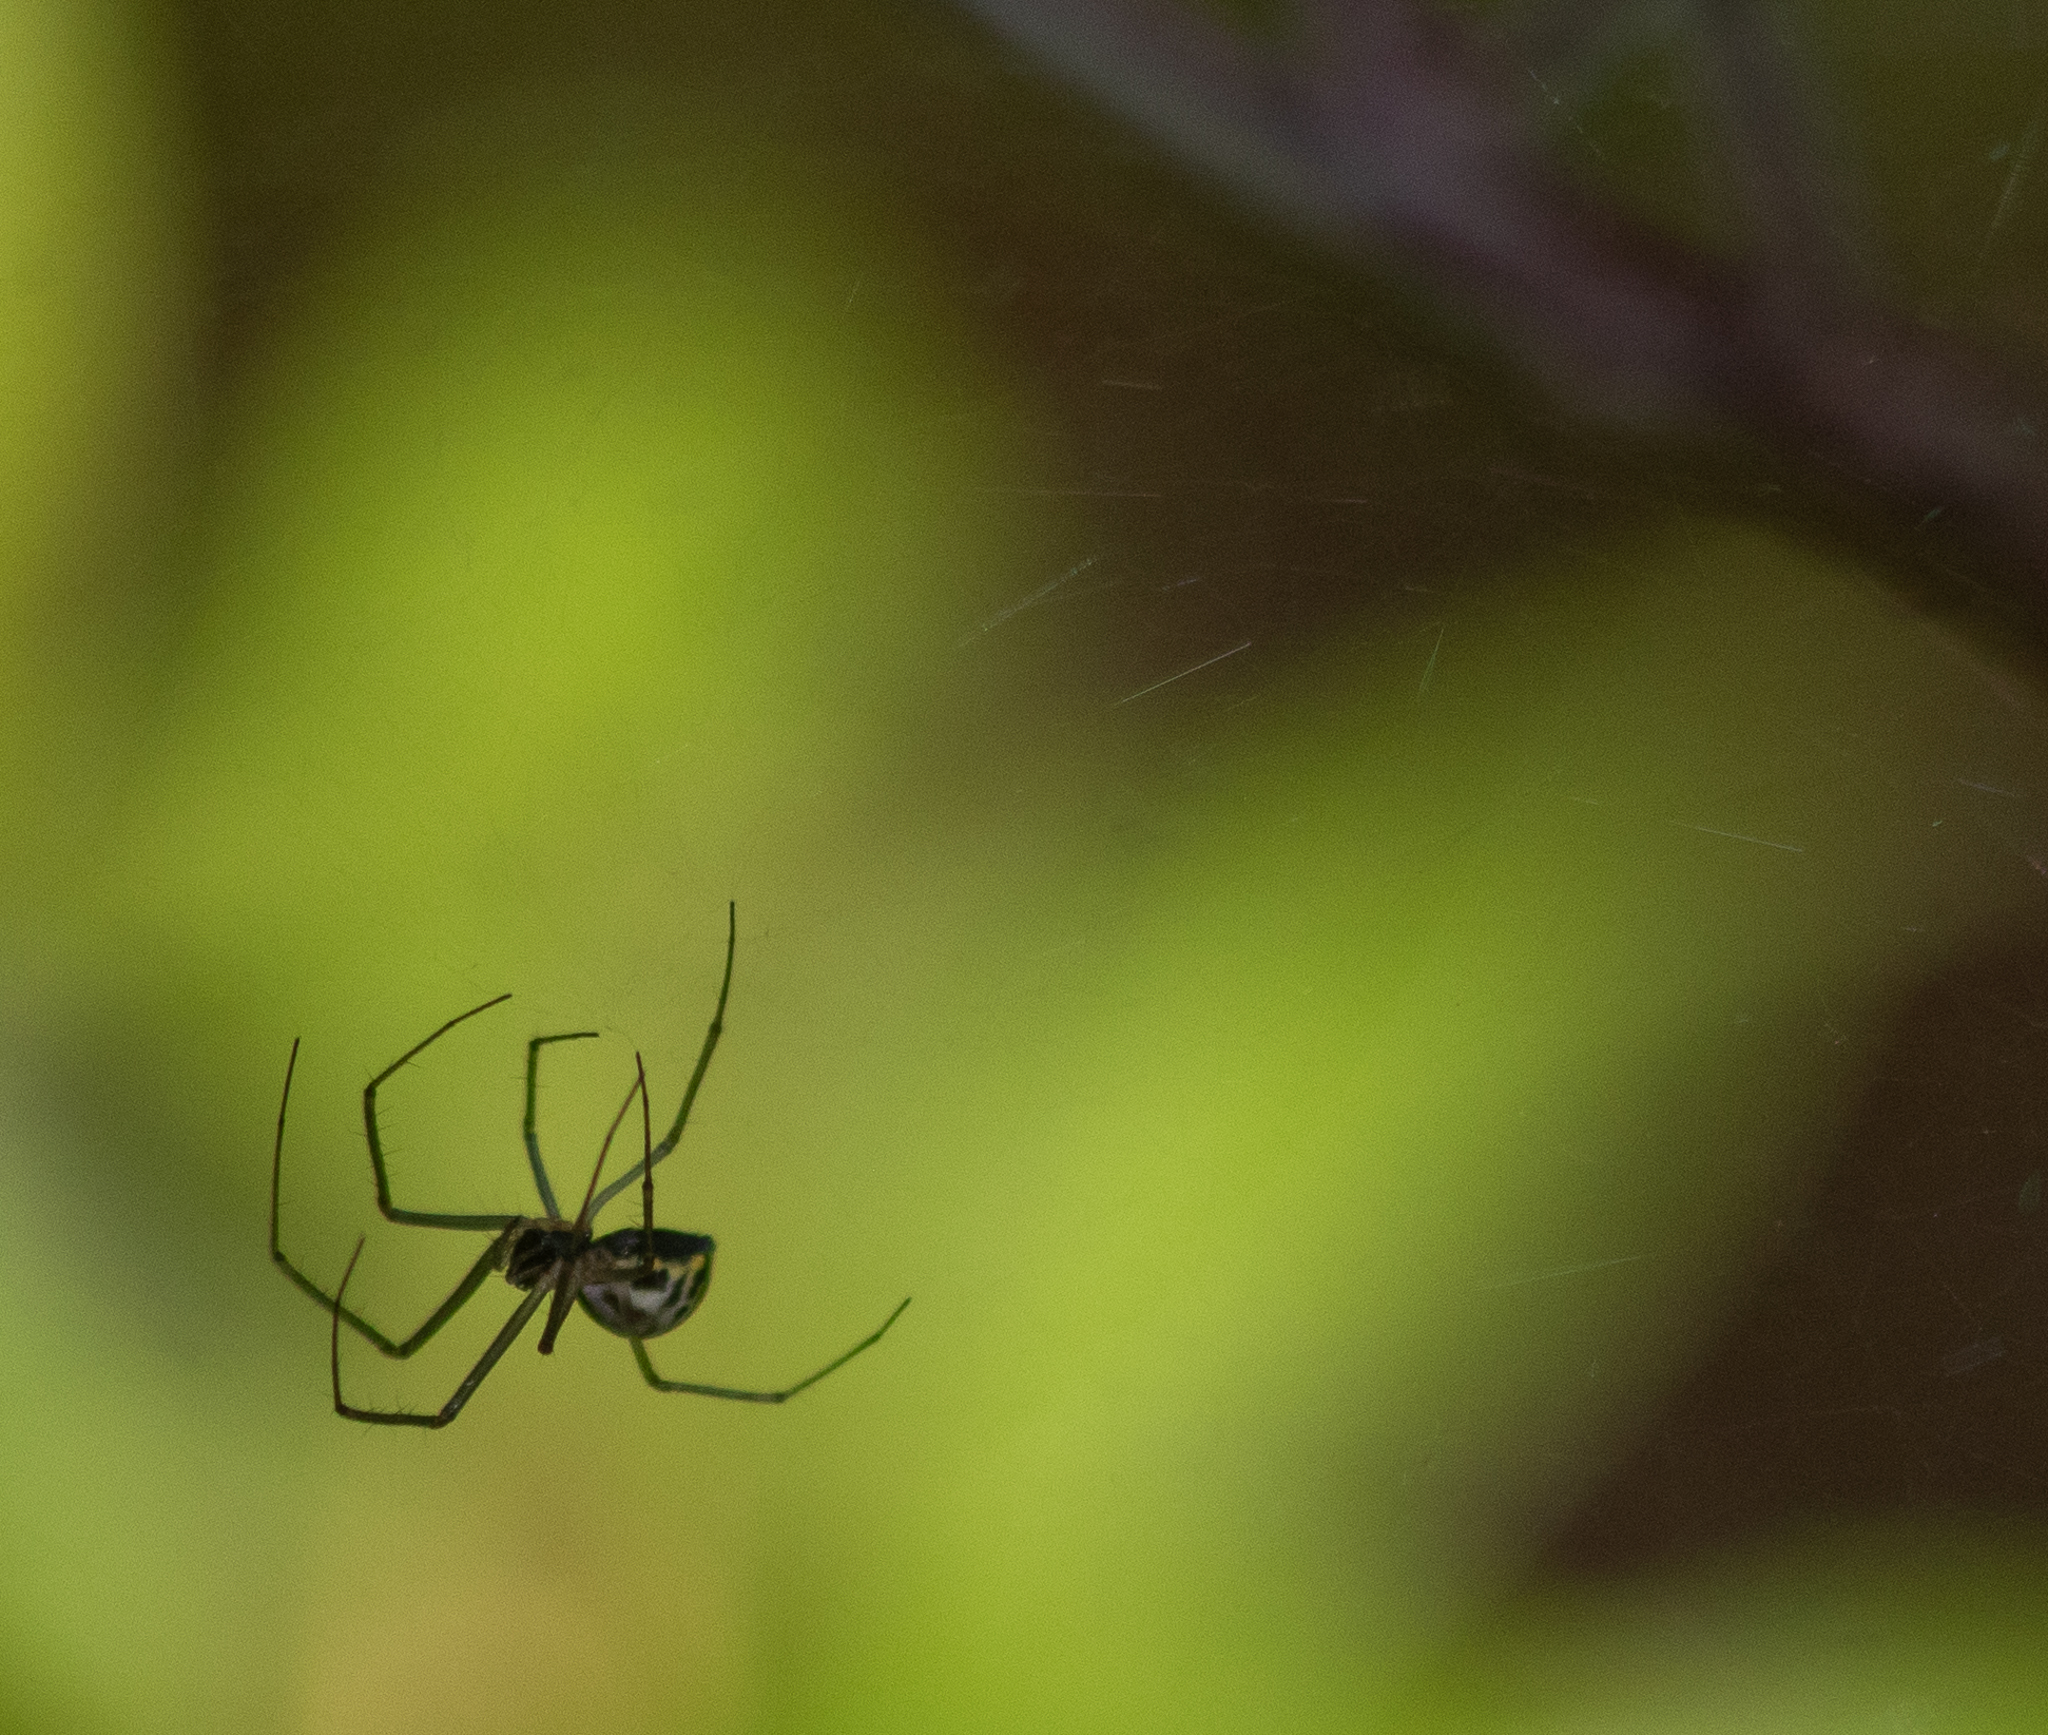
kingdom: Animalia
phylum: Arthropoda
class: Arachnida
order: Araneae
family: Linyphiidae
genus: Neriene
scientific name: Neriene radiata
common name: Filmy dome spider
